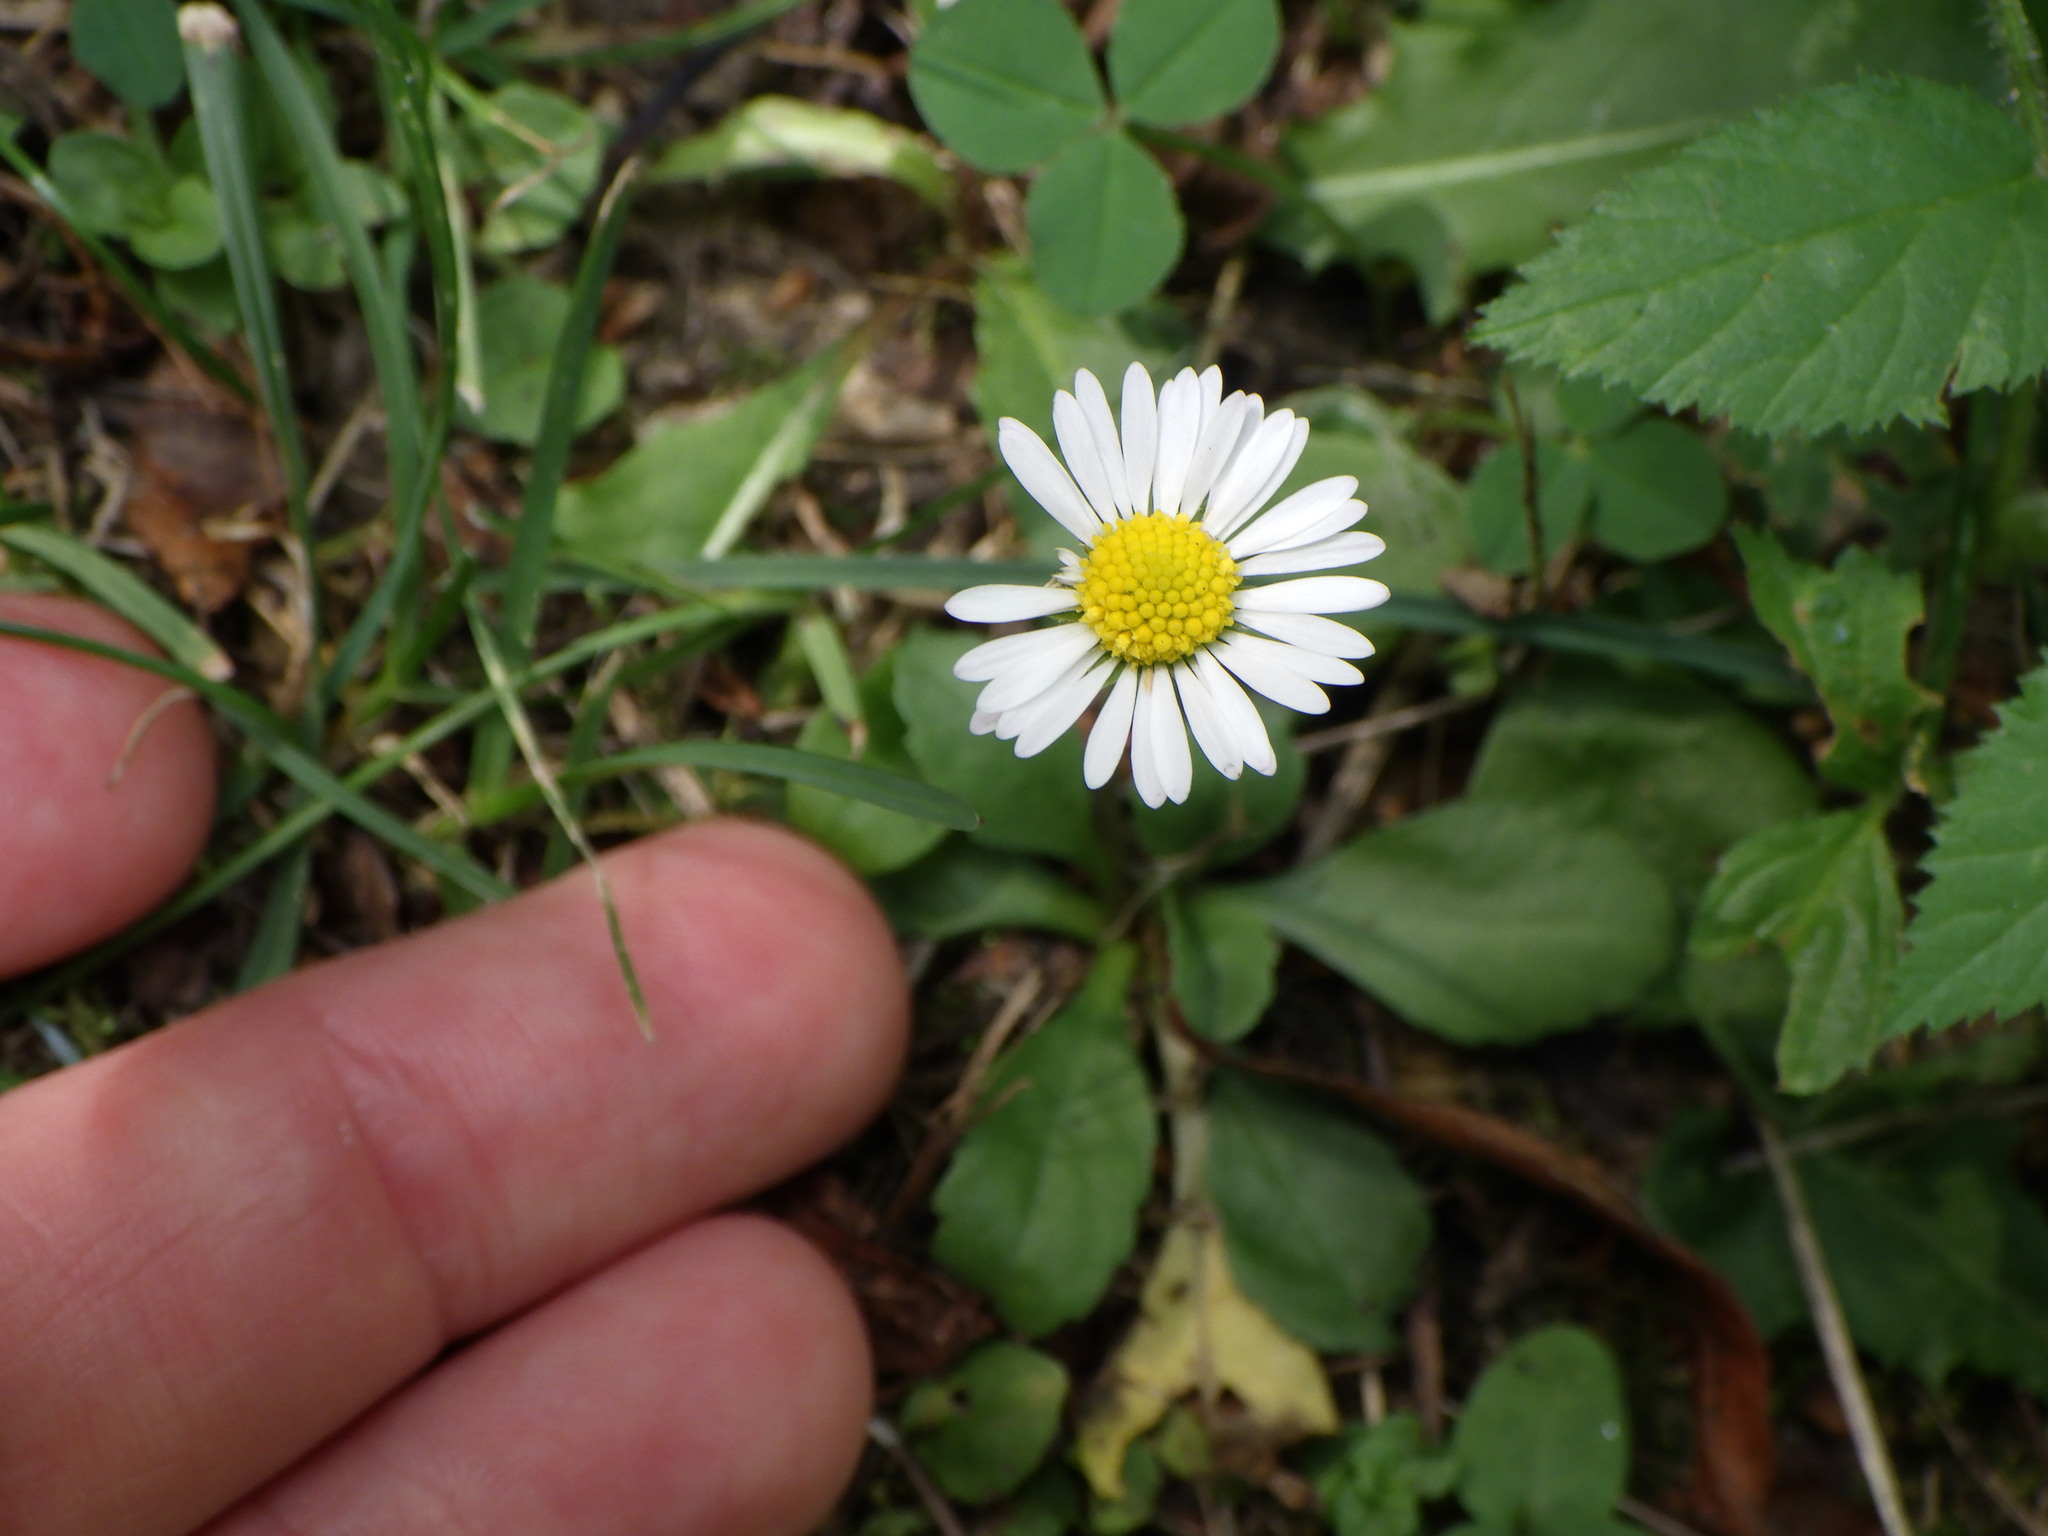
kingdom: Plantae
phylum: Tracheophyta
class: Magnoliopsida
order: Asterales
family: Asteraceae
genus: Bellis
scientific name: Bellis perennis
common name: Lawndaisy
